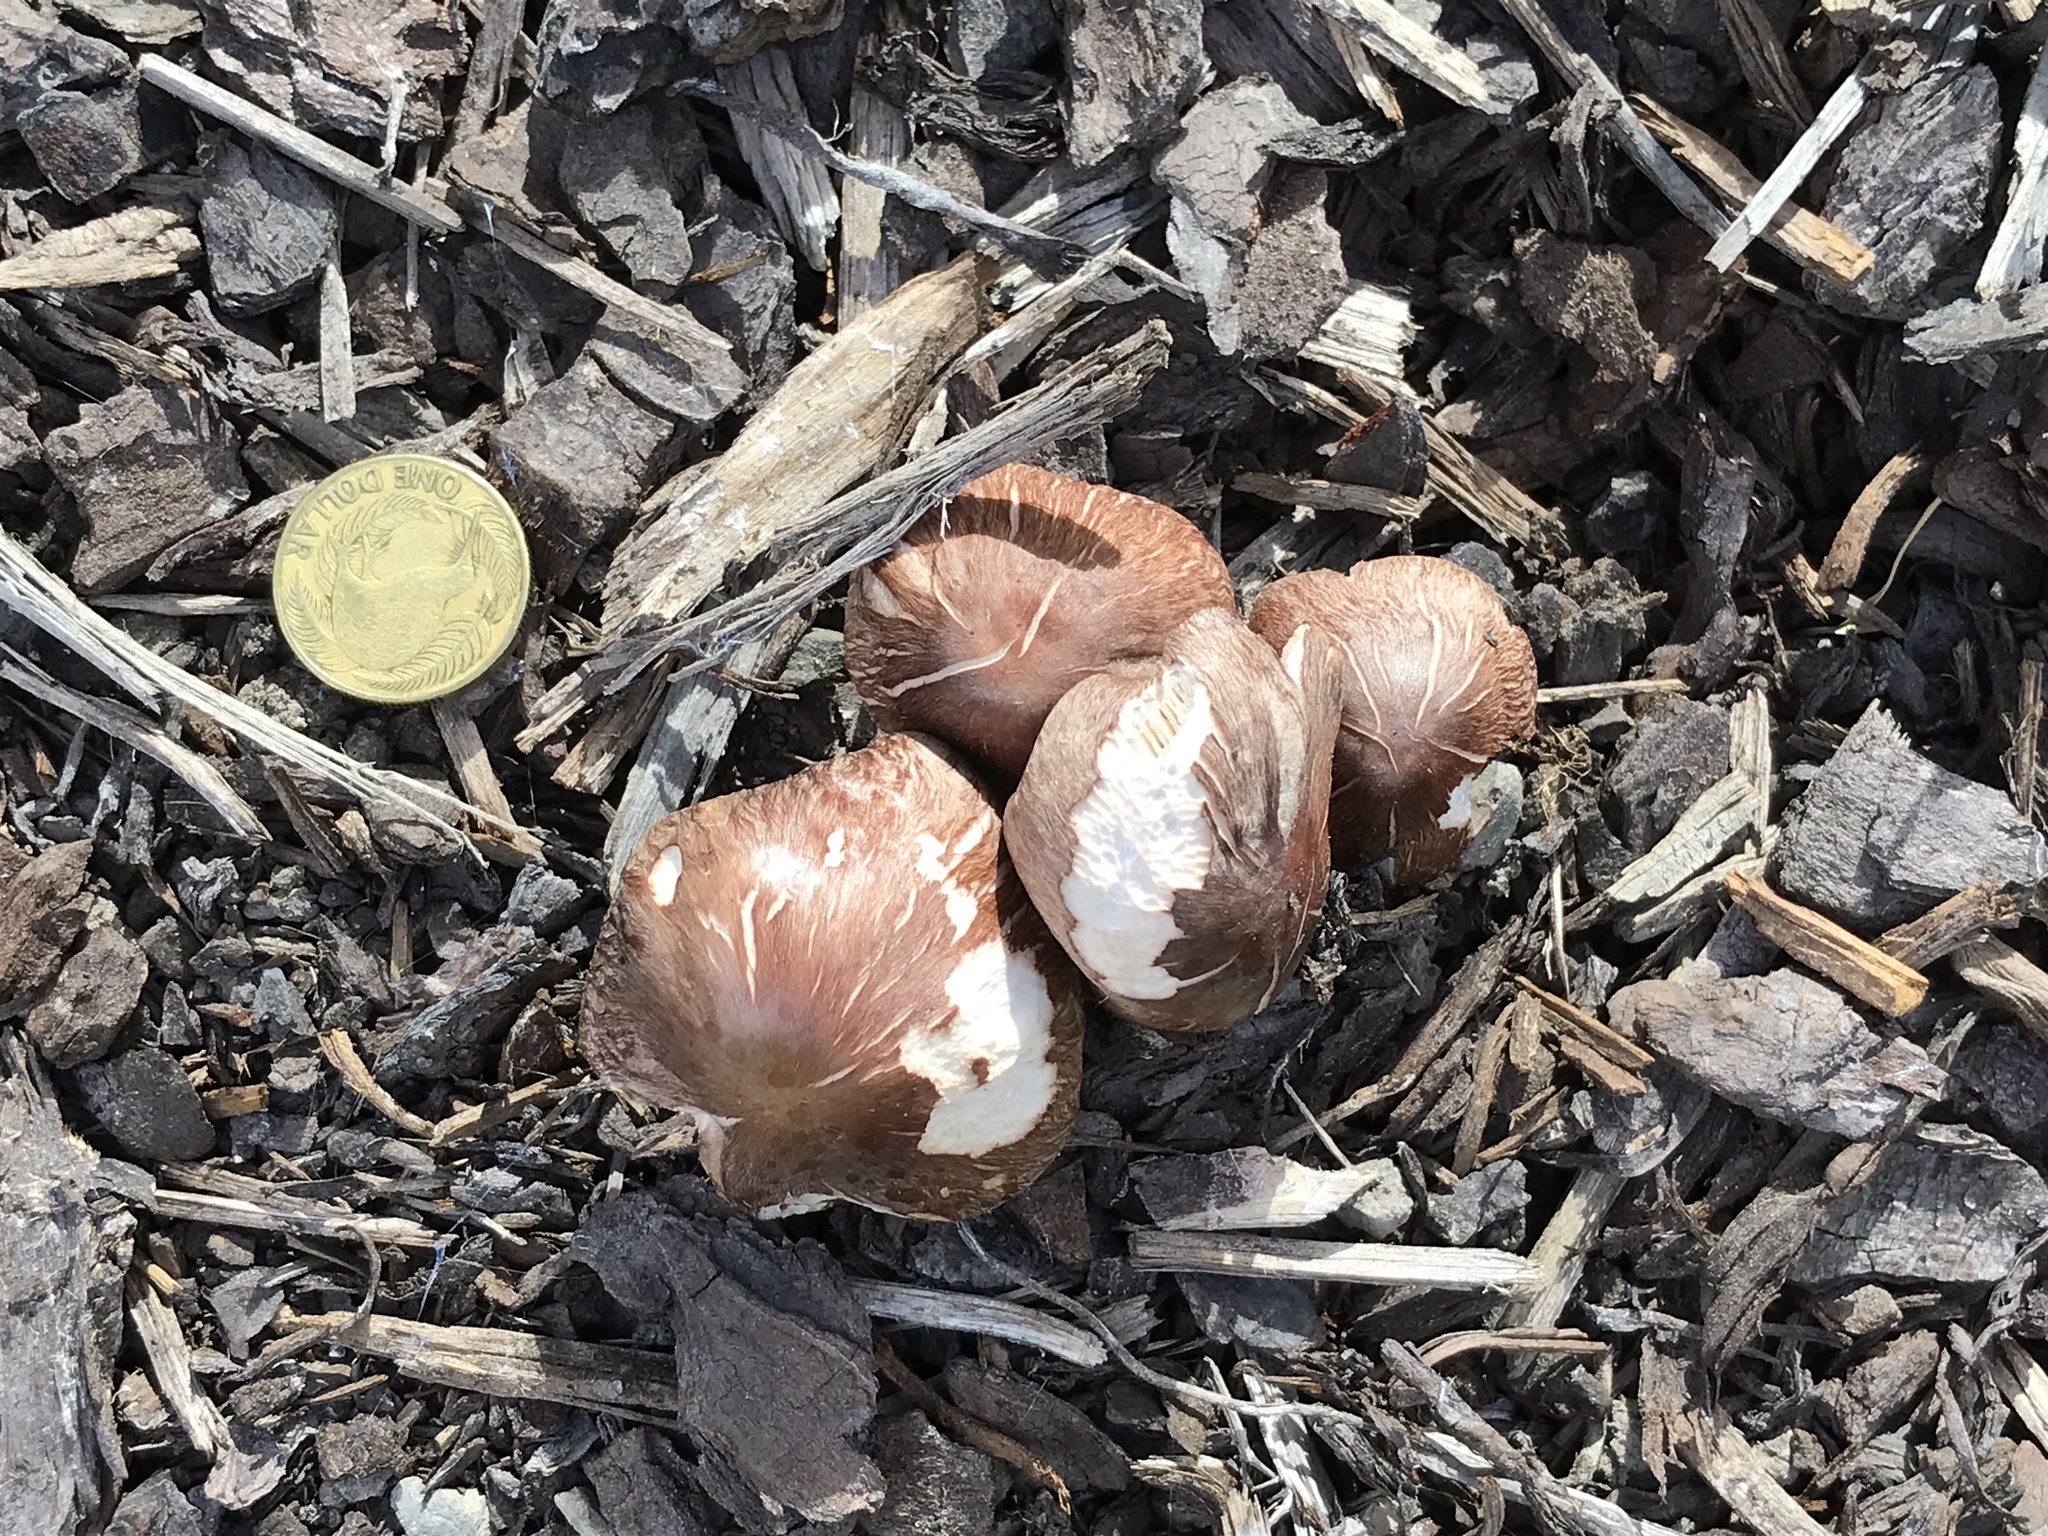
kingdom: Fungi
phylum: Basidiomycota
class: Agaricomycetes
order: Agaricales
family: Omphalotaceae
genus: Collybiopsis
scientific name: Collybiopsis luxurians
